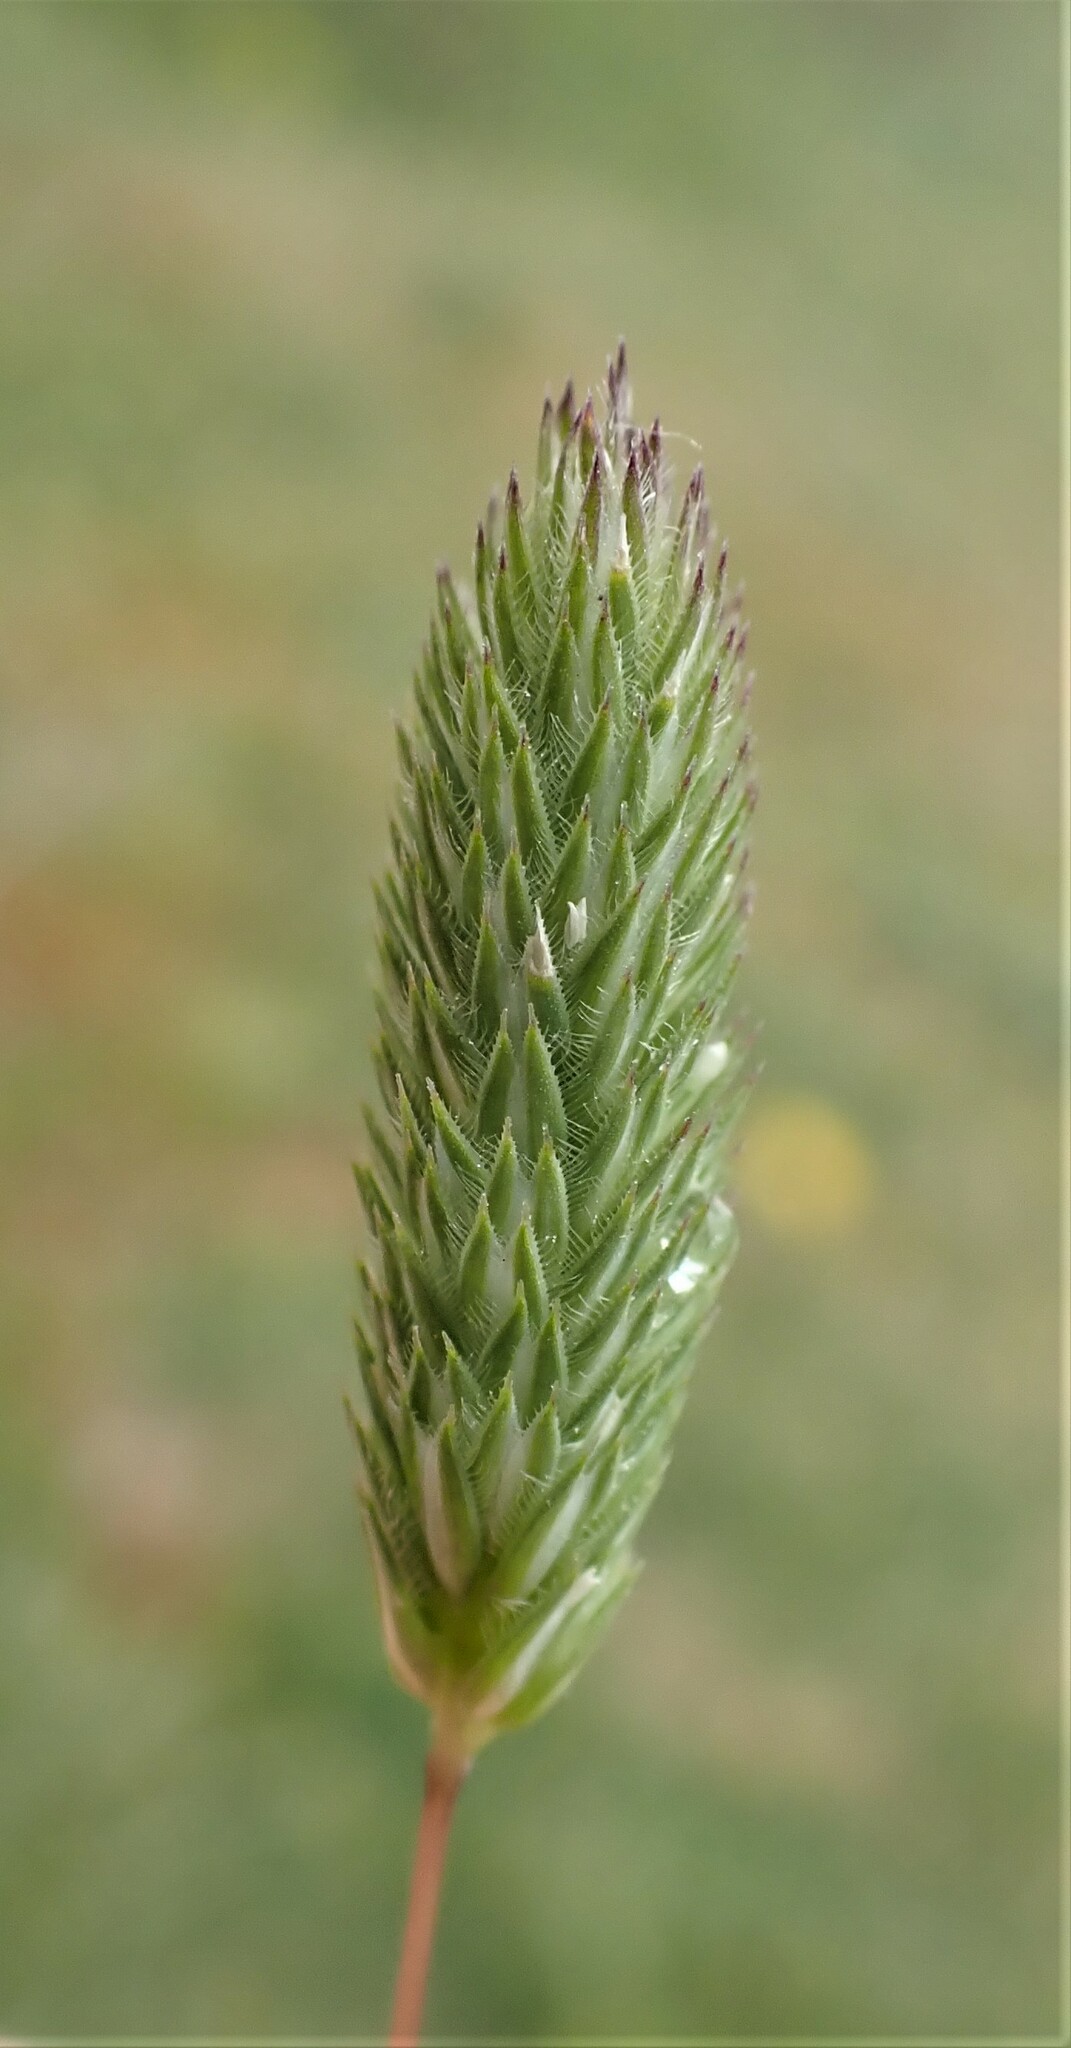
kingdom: Plantae
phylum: Tracheophyta
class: Liliopsida
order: Poales
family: Poaceae
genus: Phleum
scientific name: Phleum arenarium
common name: Sand cat's-tail
